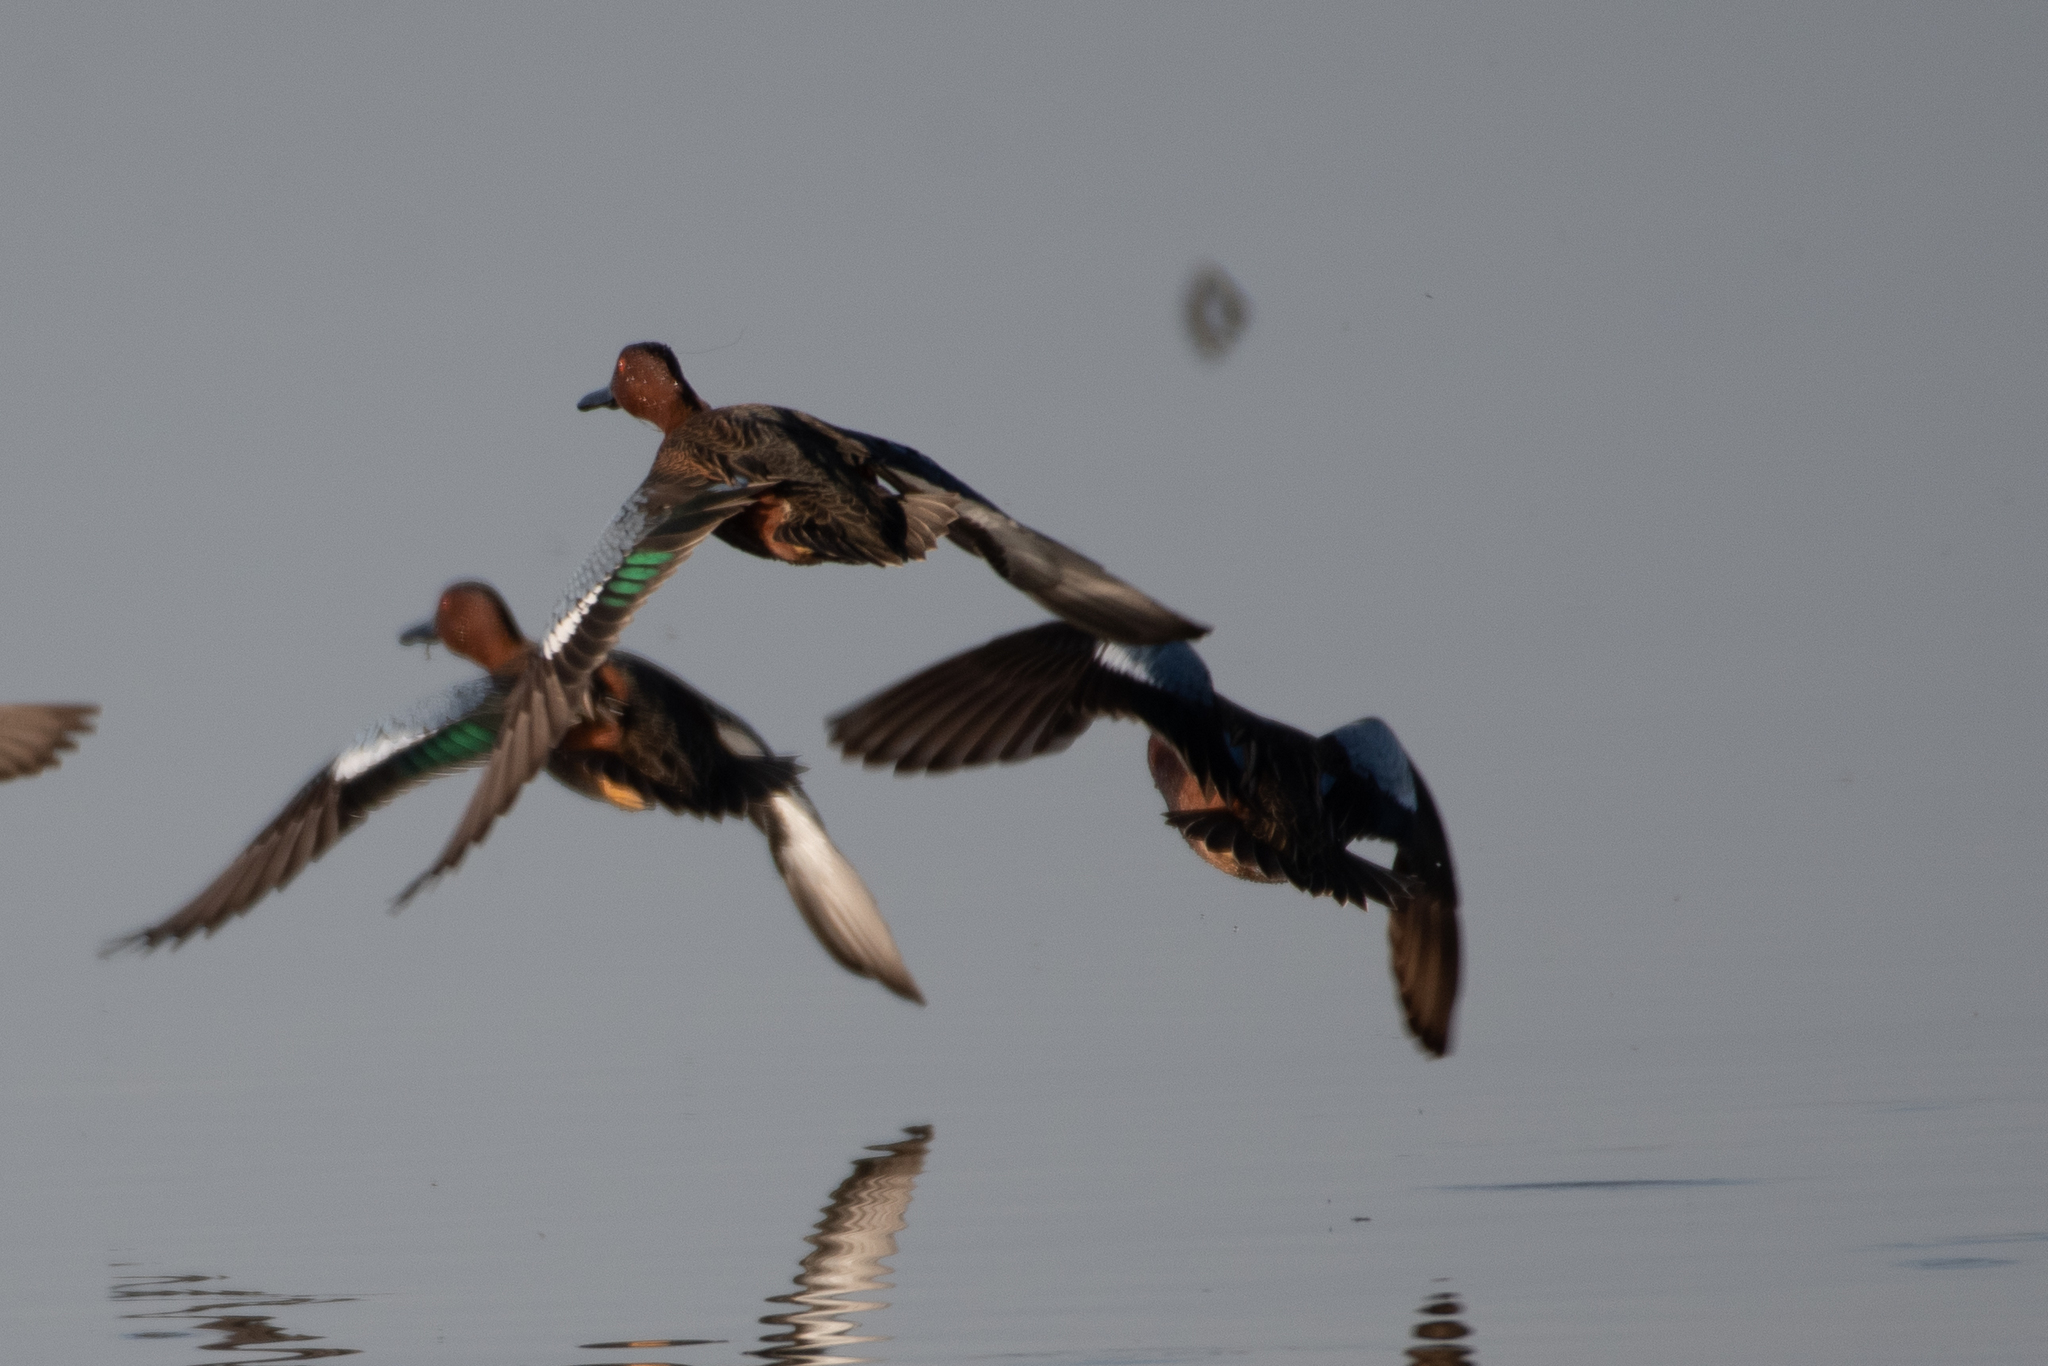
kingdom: Animalia
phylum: Chordata
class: Aves
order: Anseriformes
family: Anatidae
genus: Spatula
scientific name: Spatula cyanoptera
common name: Cinnamon teal
